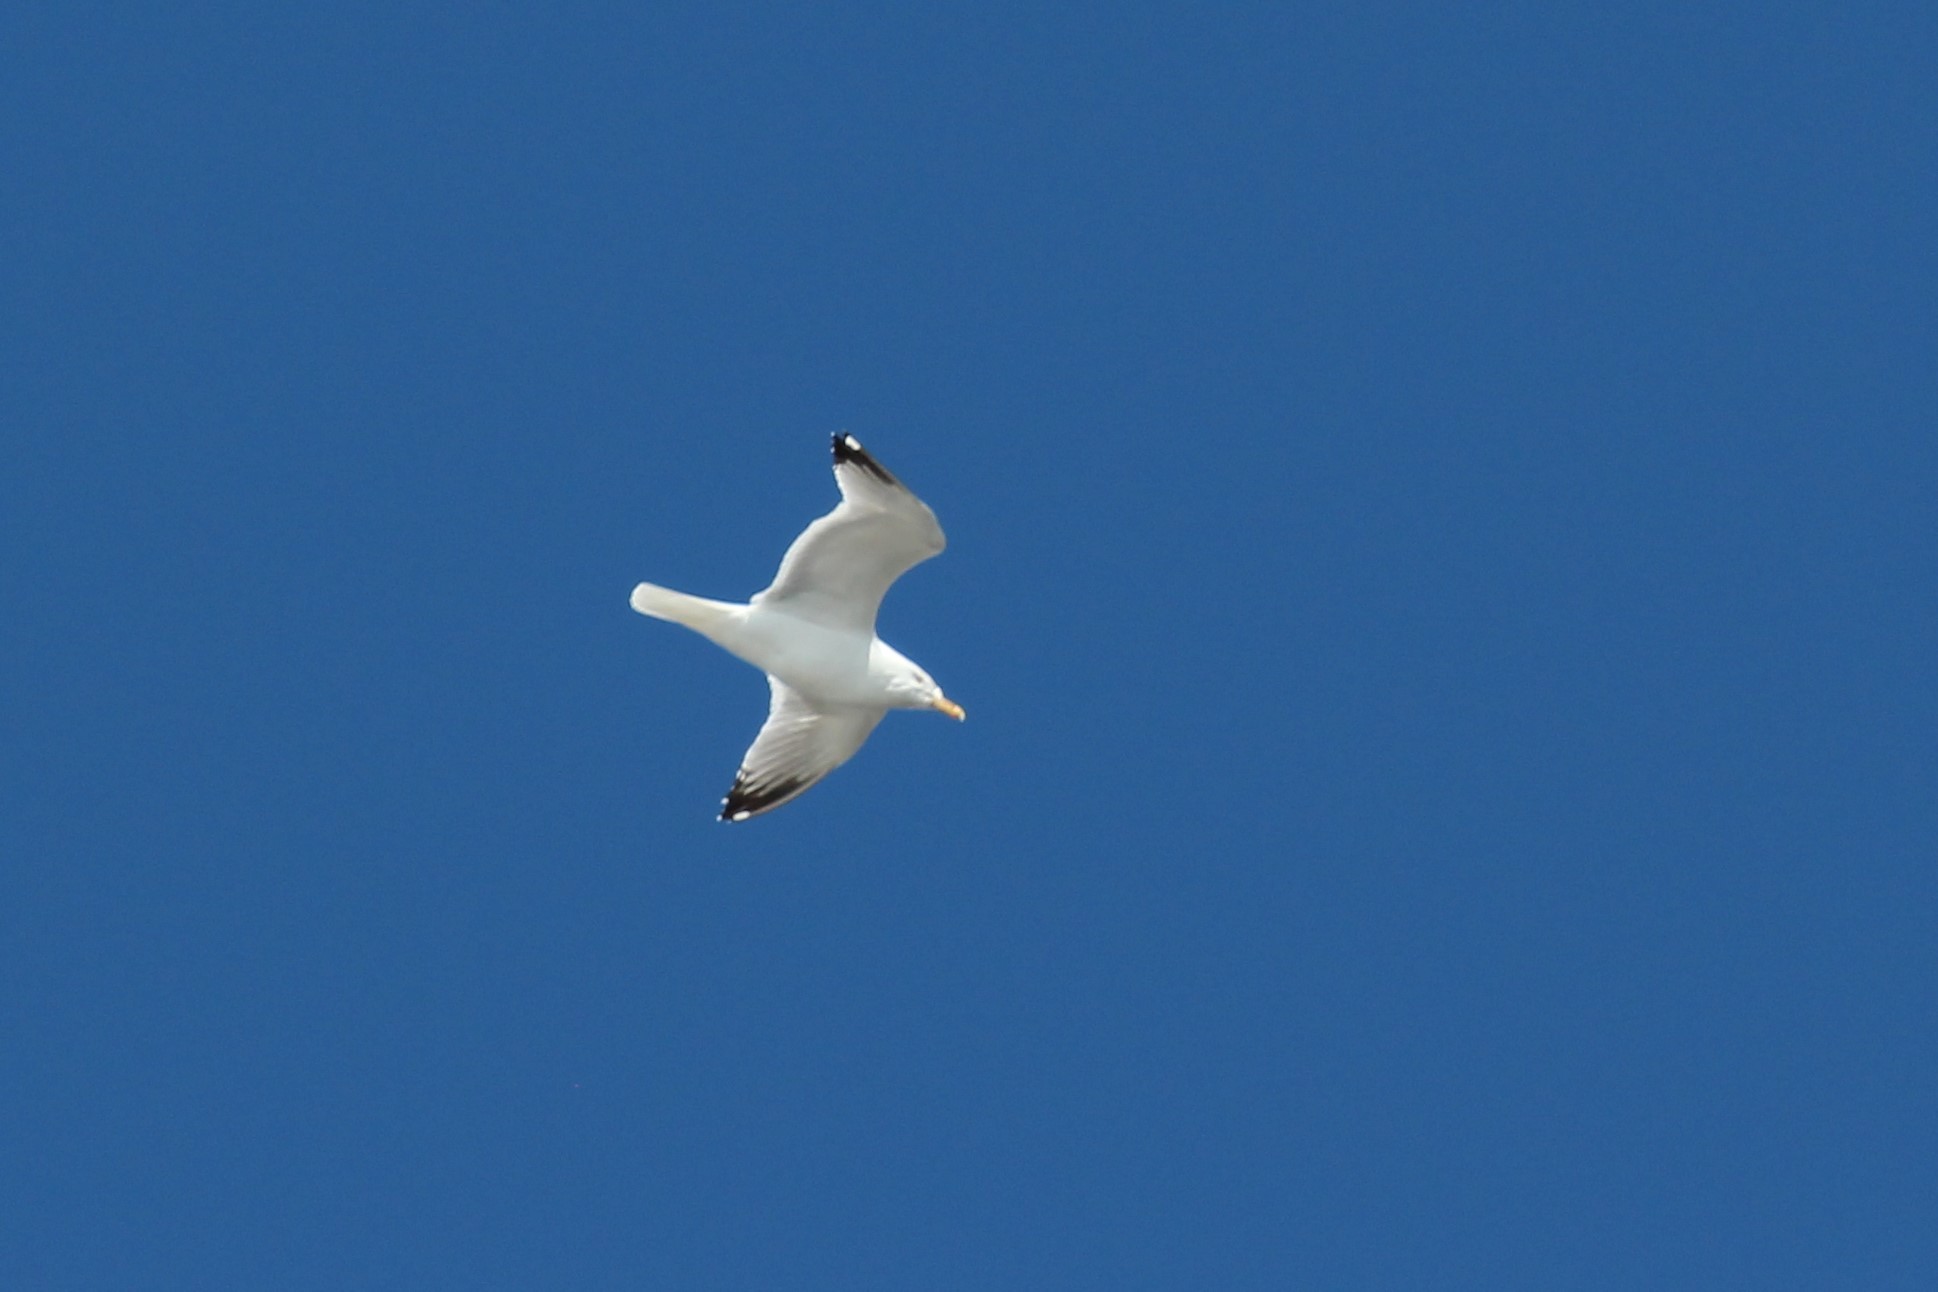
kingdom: Animalia
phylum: Chordata
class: Aves
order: Charadriiformes
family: Laridae
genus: Larus
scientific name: Larus argentatus
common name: Herring gull
